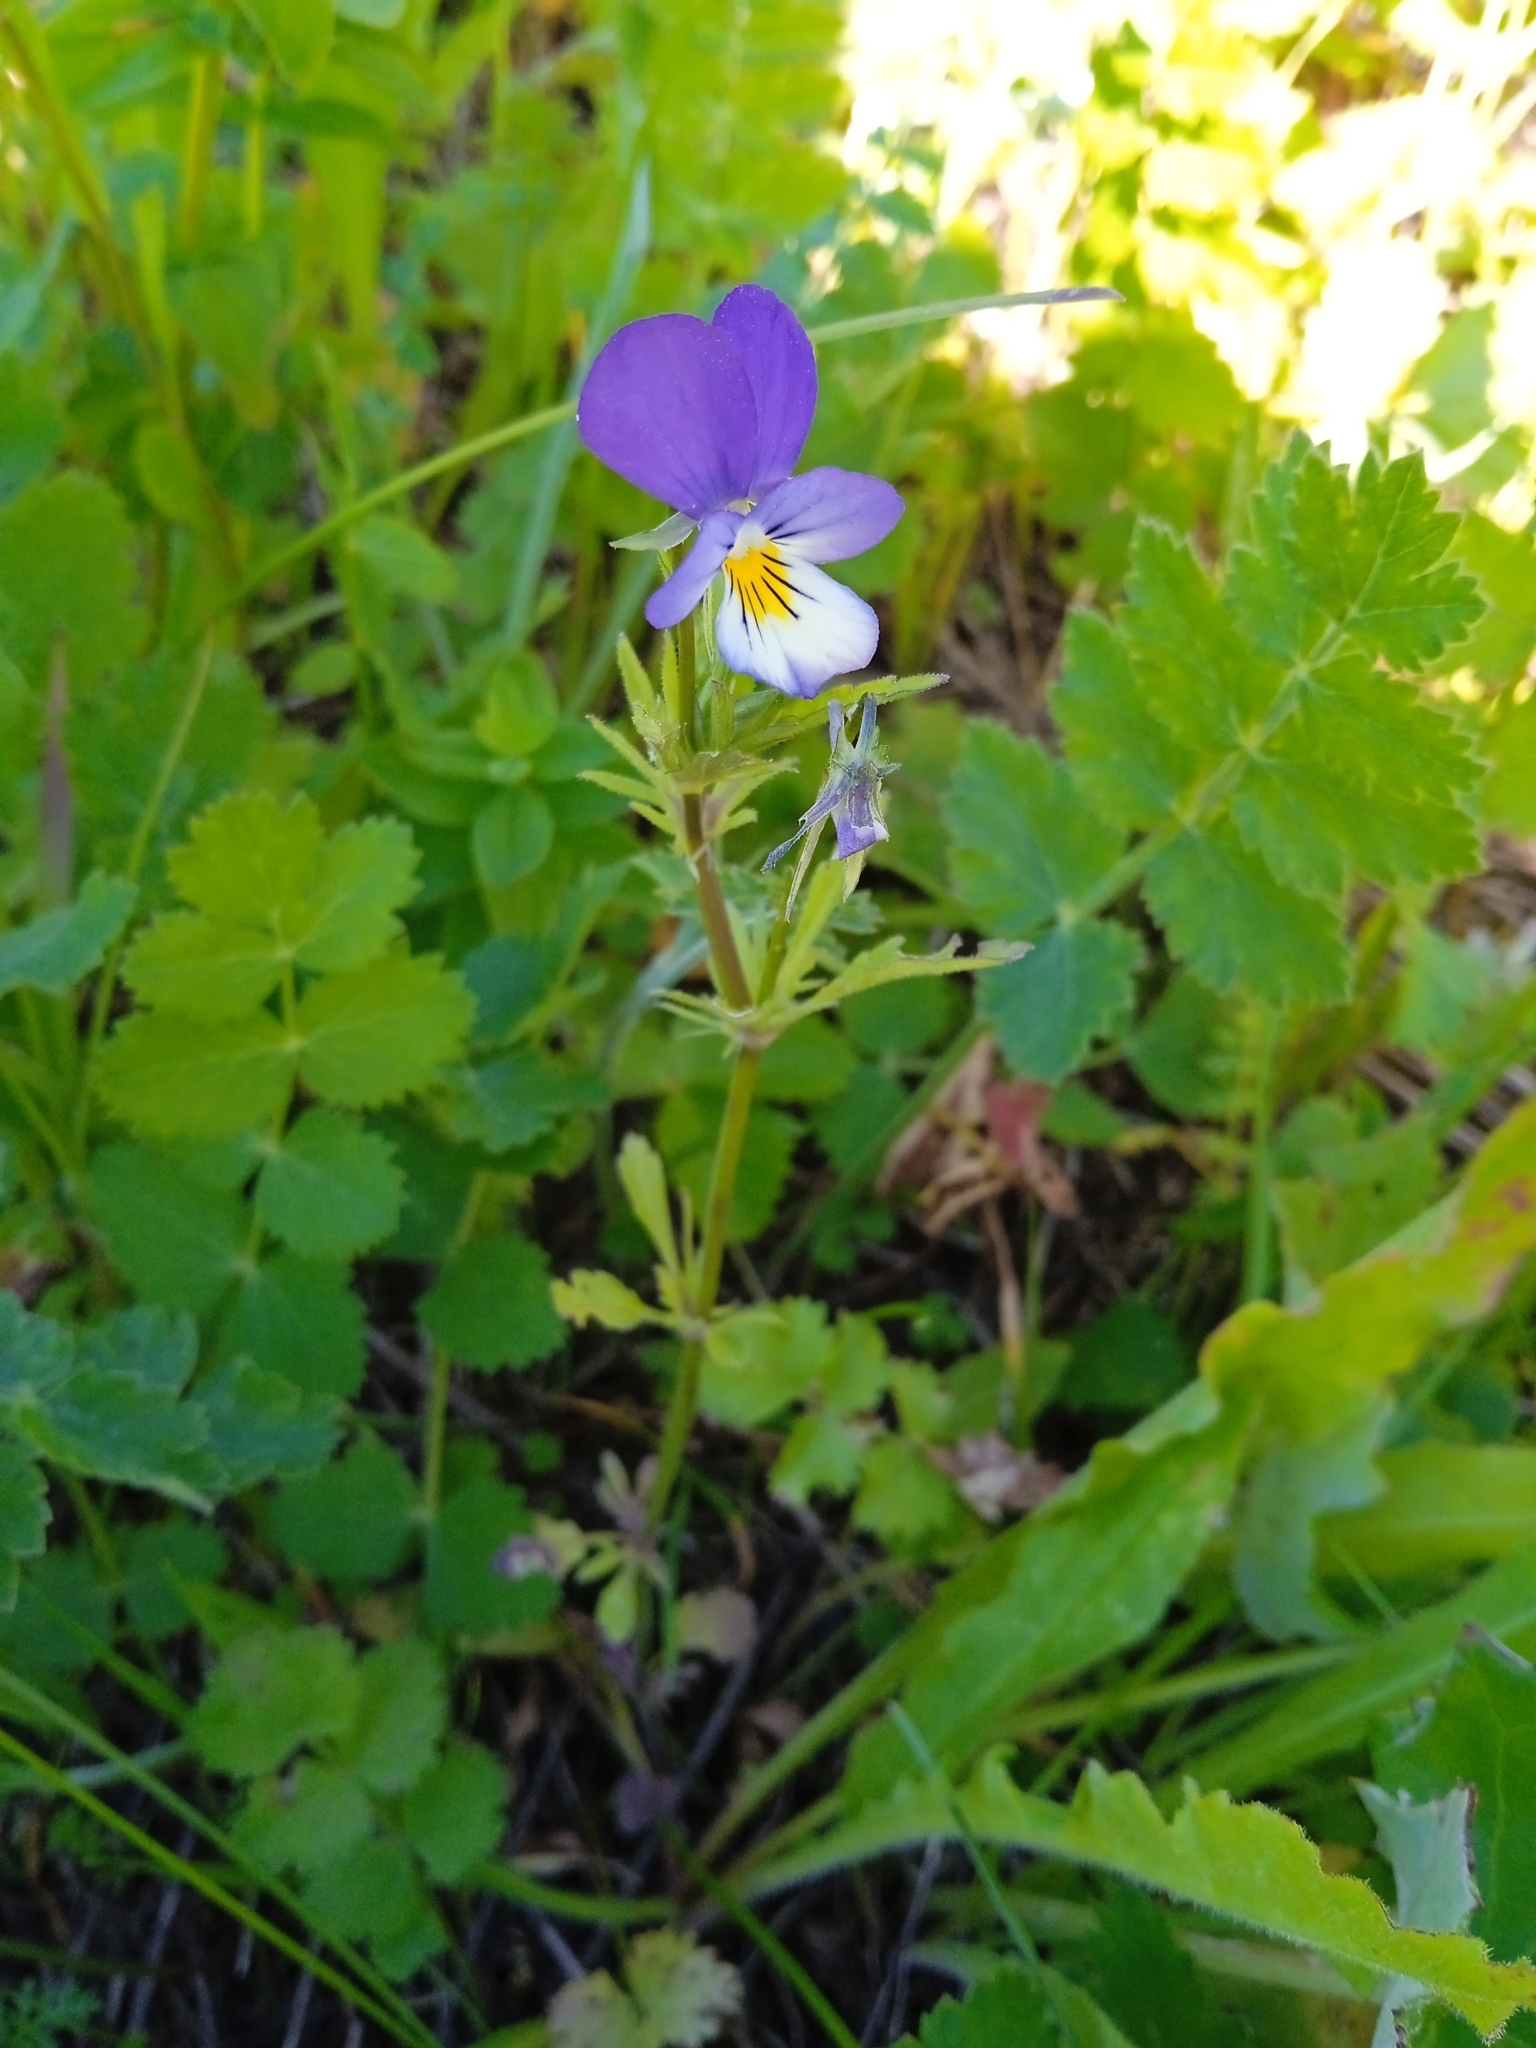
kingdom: Plantae
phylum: Tracheophyta
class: Magnoliopsida
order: Malpighiales
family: Violaceae
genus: Viola
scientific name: Viola tricolor
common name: Pansy
